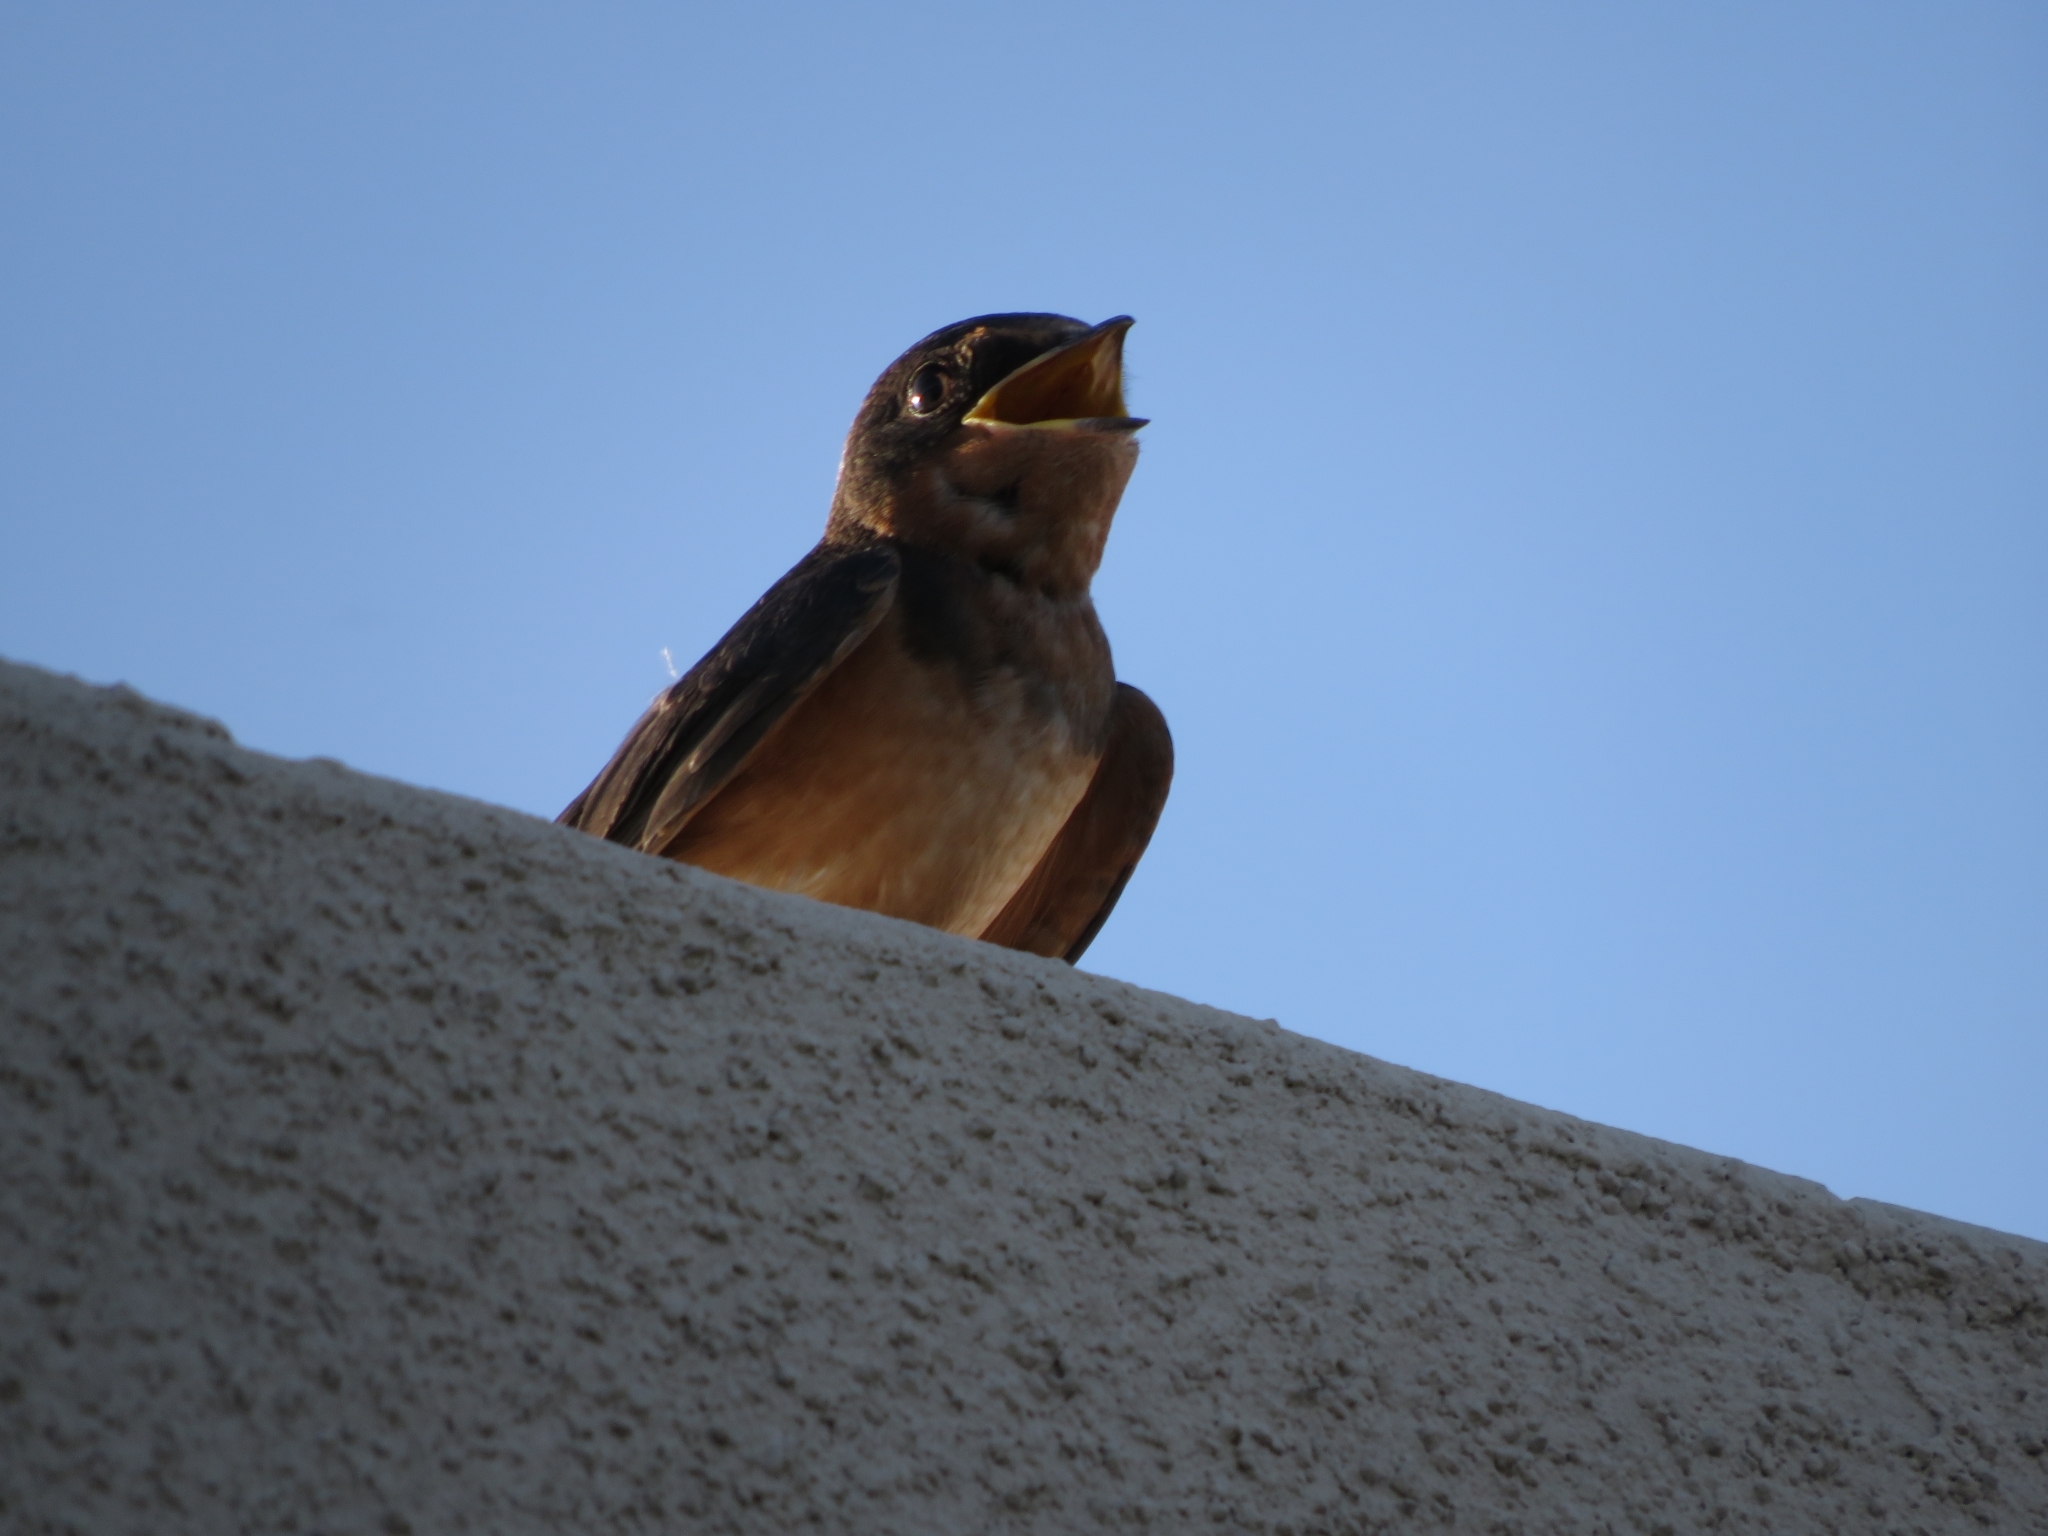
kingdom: Animalia
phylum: Chordata
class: Aves
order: Passeriformes
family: Hirundinidae
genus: Hirundo
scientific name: Hirundo rustica
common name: Barn swallow
